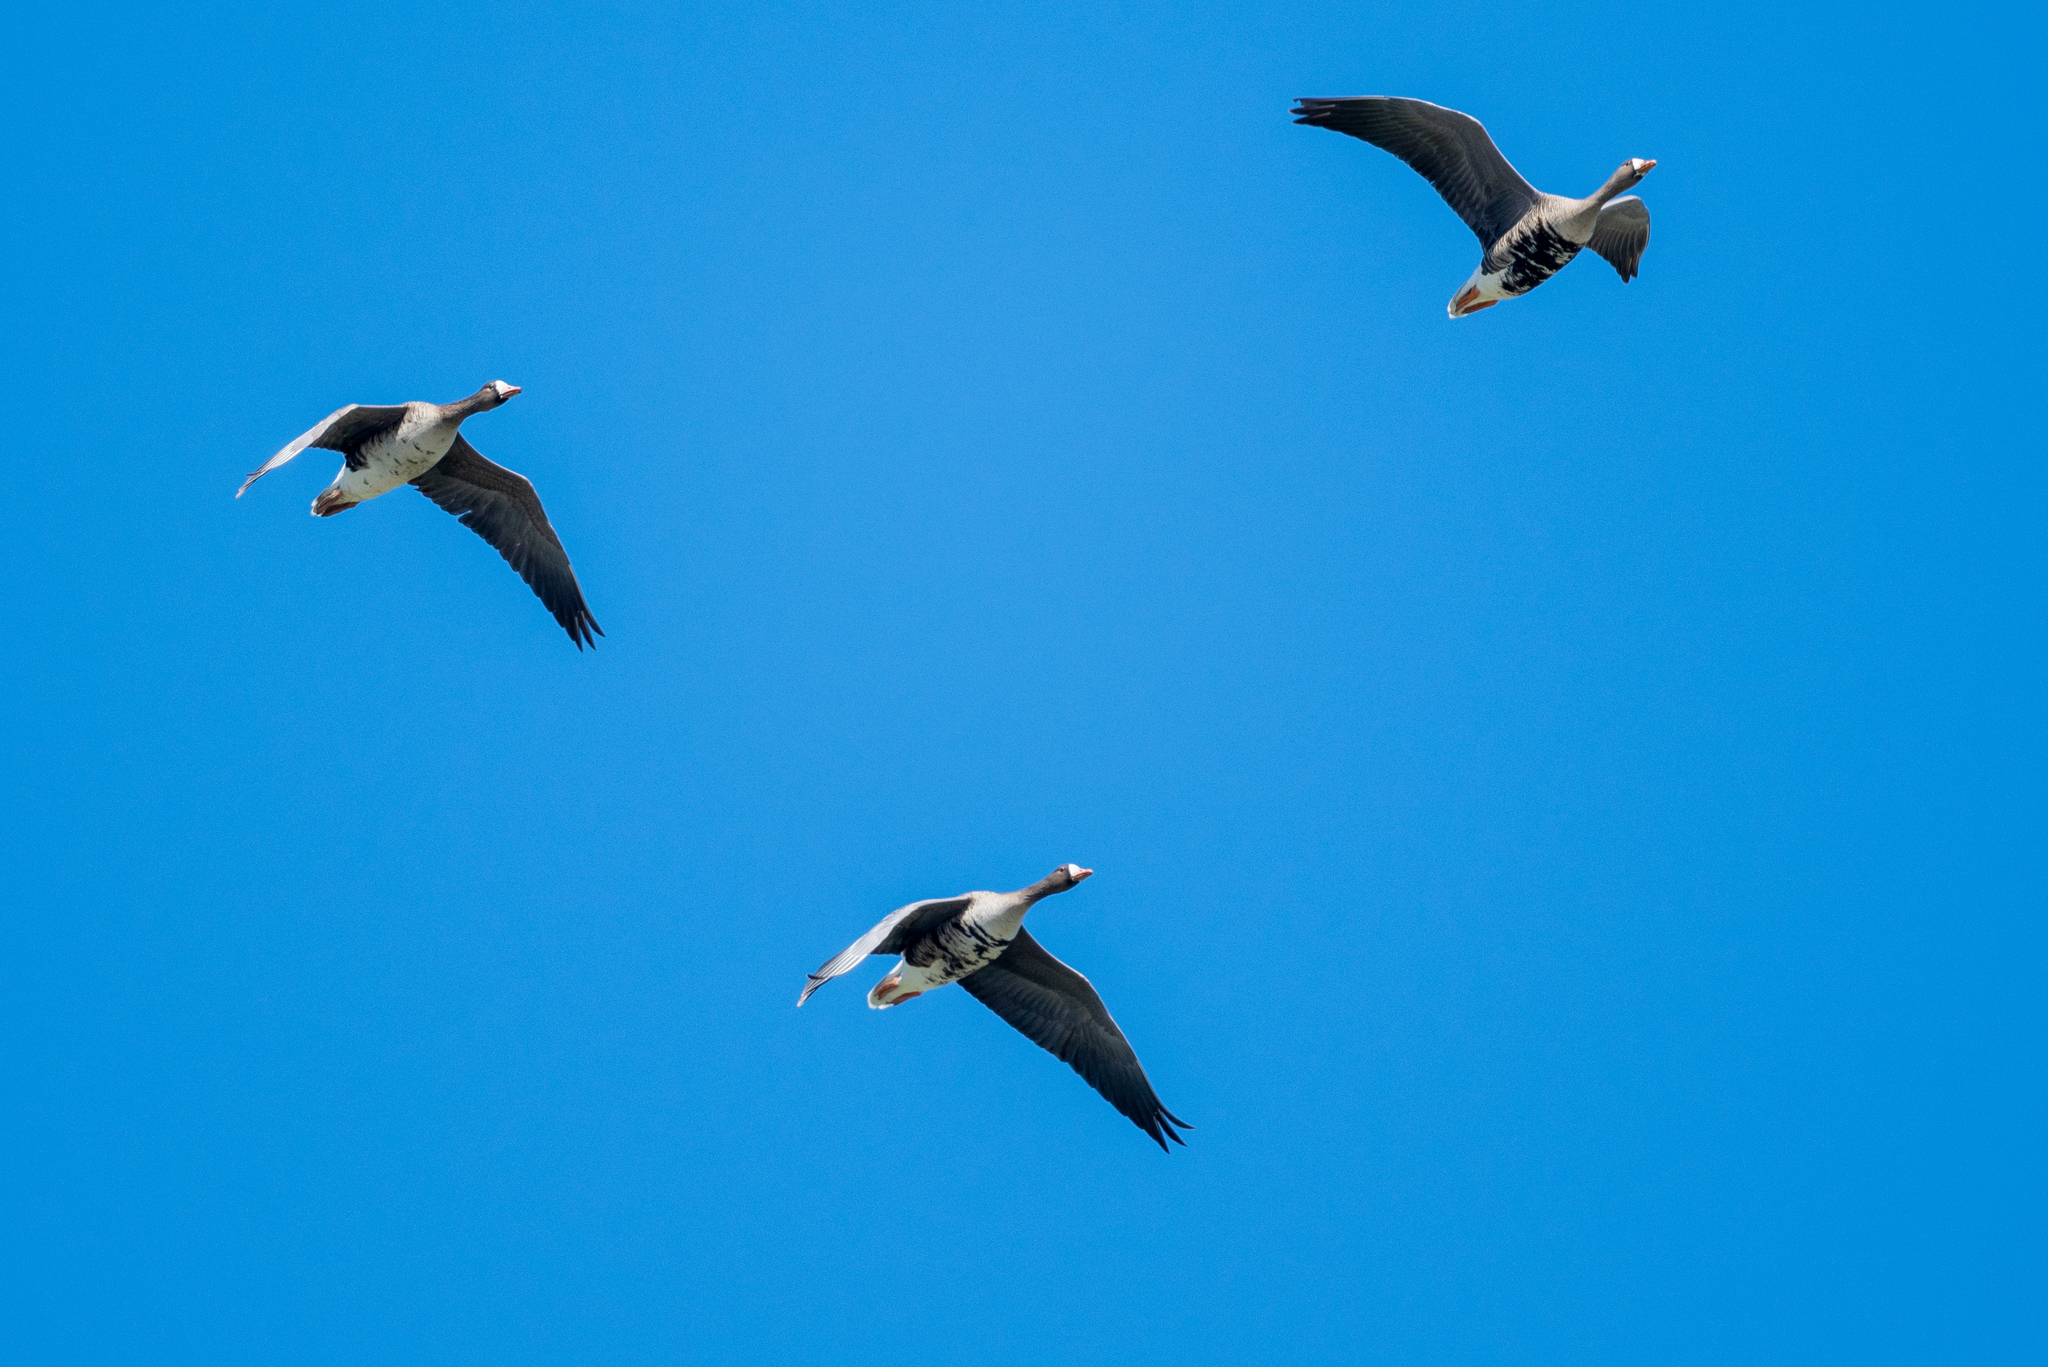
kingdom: Animalia
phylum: Chordata
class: Aves
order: Anseriformes
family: Anatidae
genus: Anser
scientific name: Anser albifrons
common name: Greater white-fronted goose
